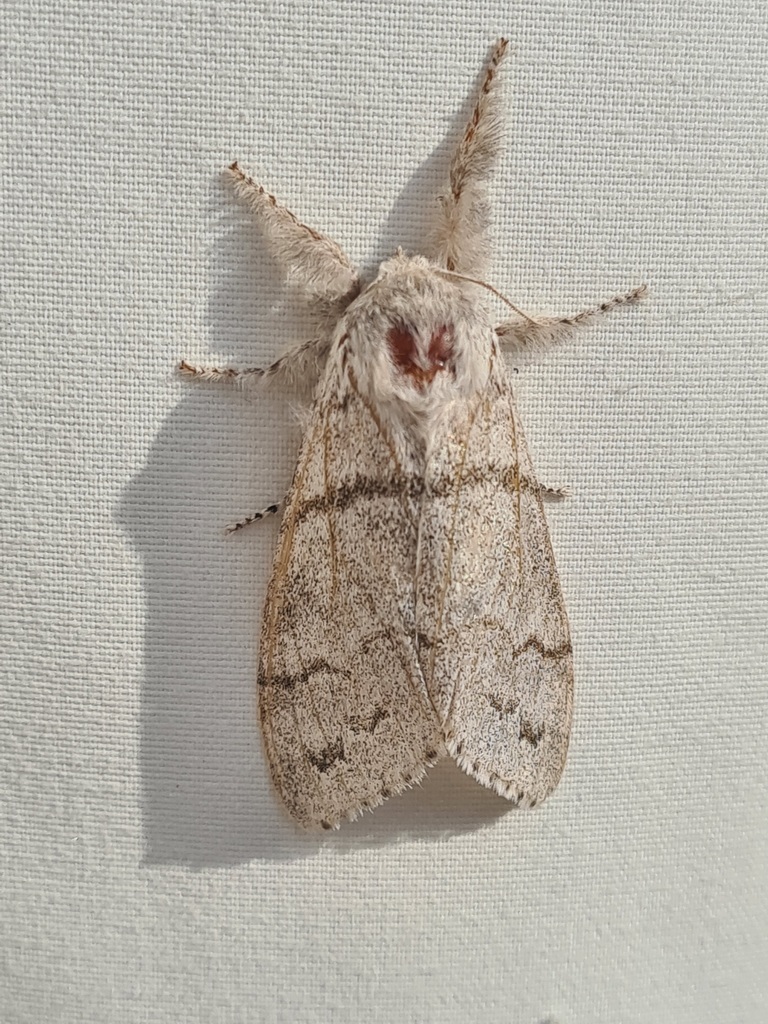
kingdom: Animalia
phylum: Arthropoda
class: Insecta
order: Lepidoptera
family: Erebidae
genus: Calliteara
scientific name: Calliteara pudibunda
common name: Pale tussock
